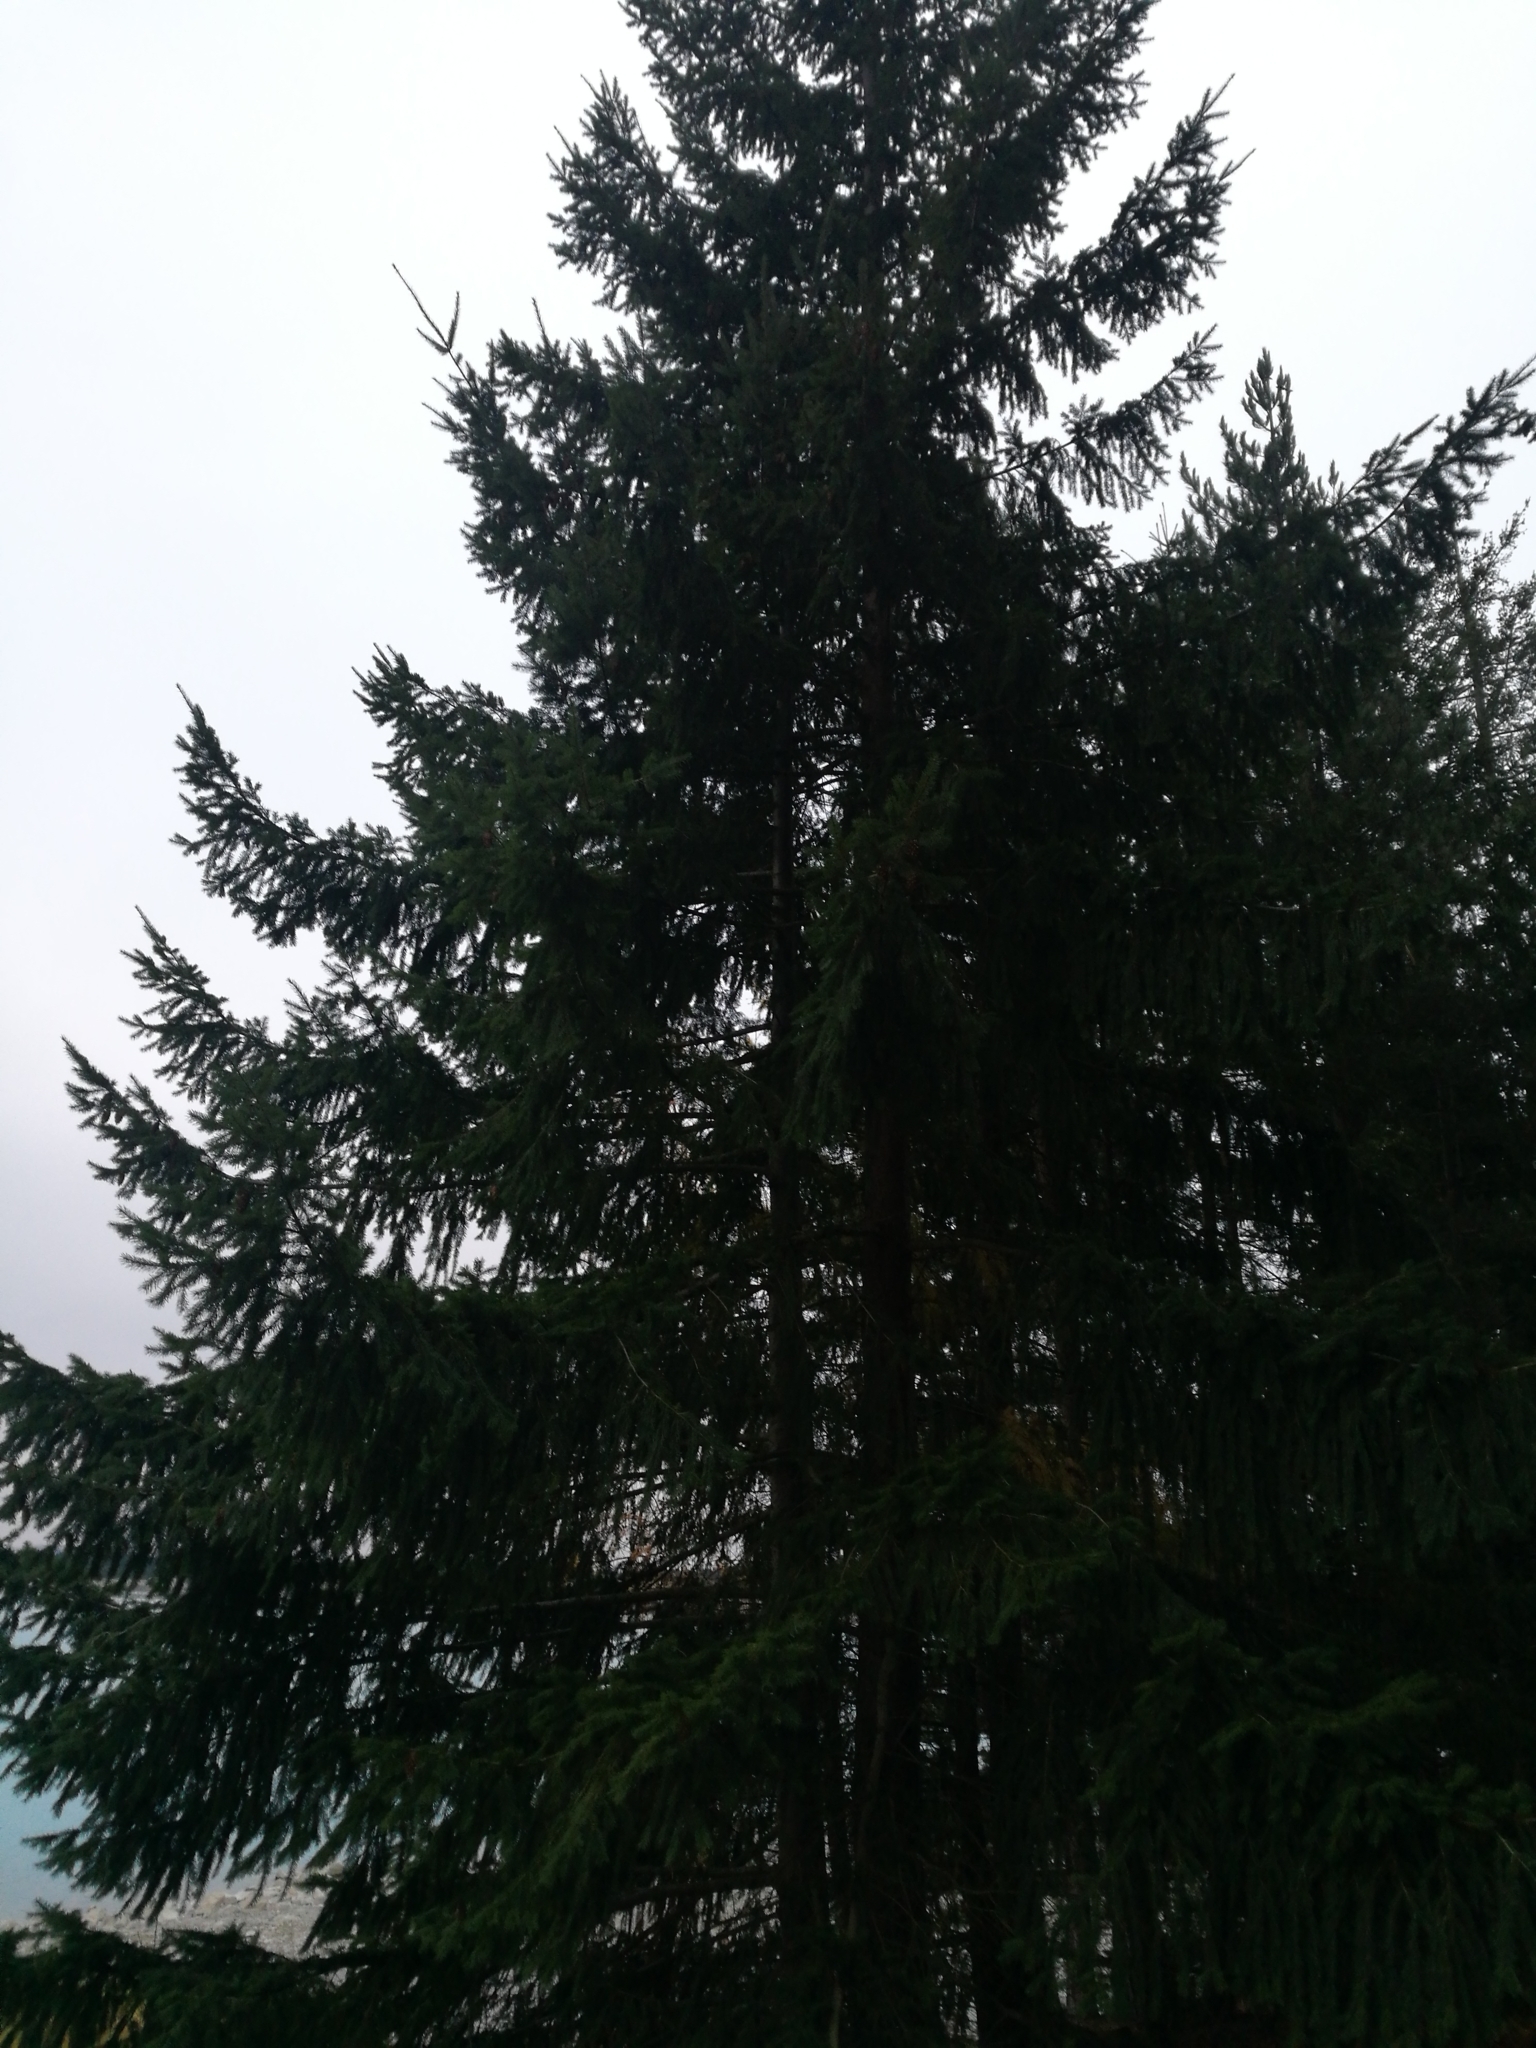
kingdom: Plantae
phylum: Tracheophyta
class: Pinopsida
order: Pinales
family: Pinaceae
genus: Pseudotsuga
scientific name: Pseudotsuga menziesii
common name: Douglas fir
